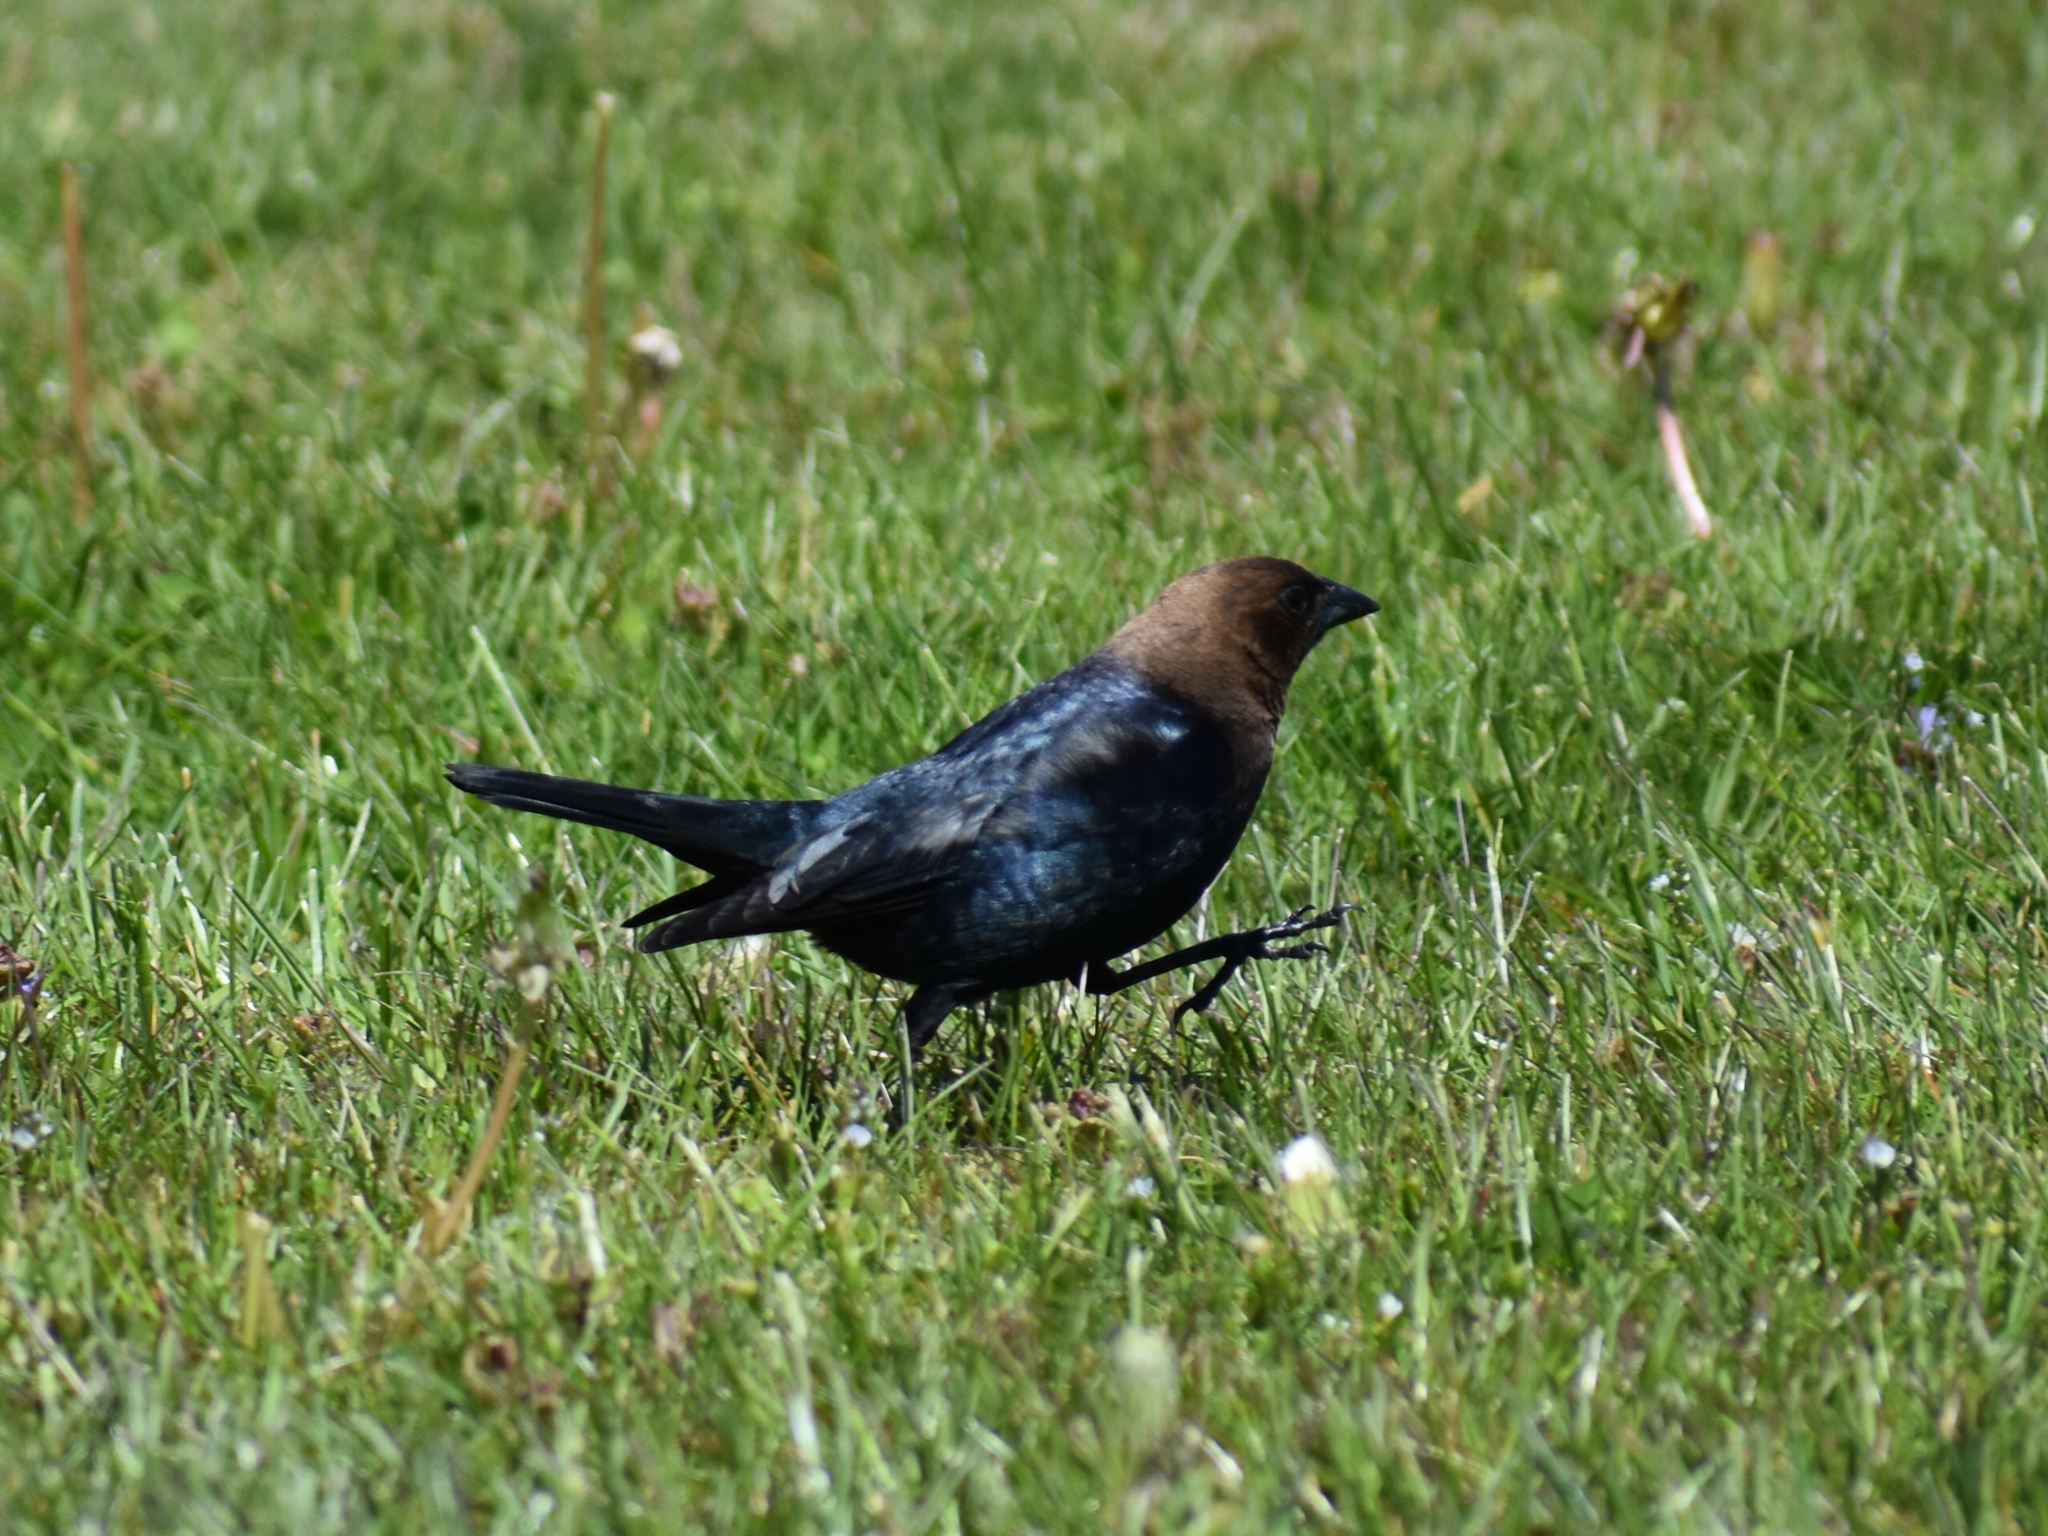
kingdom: Animalia
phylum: Chordata
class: Aves
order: Passeriformes
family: Icteridae
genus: Molothrus
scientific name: Molothrus ater
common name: Brown-headed cowbird
